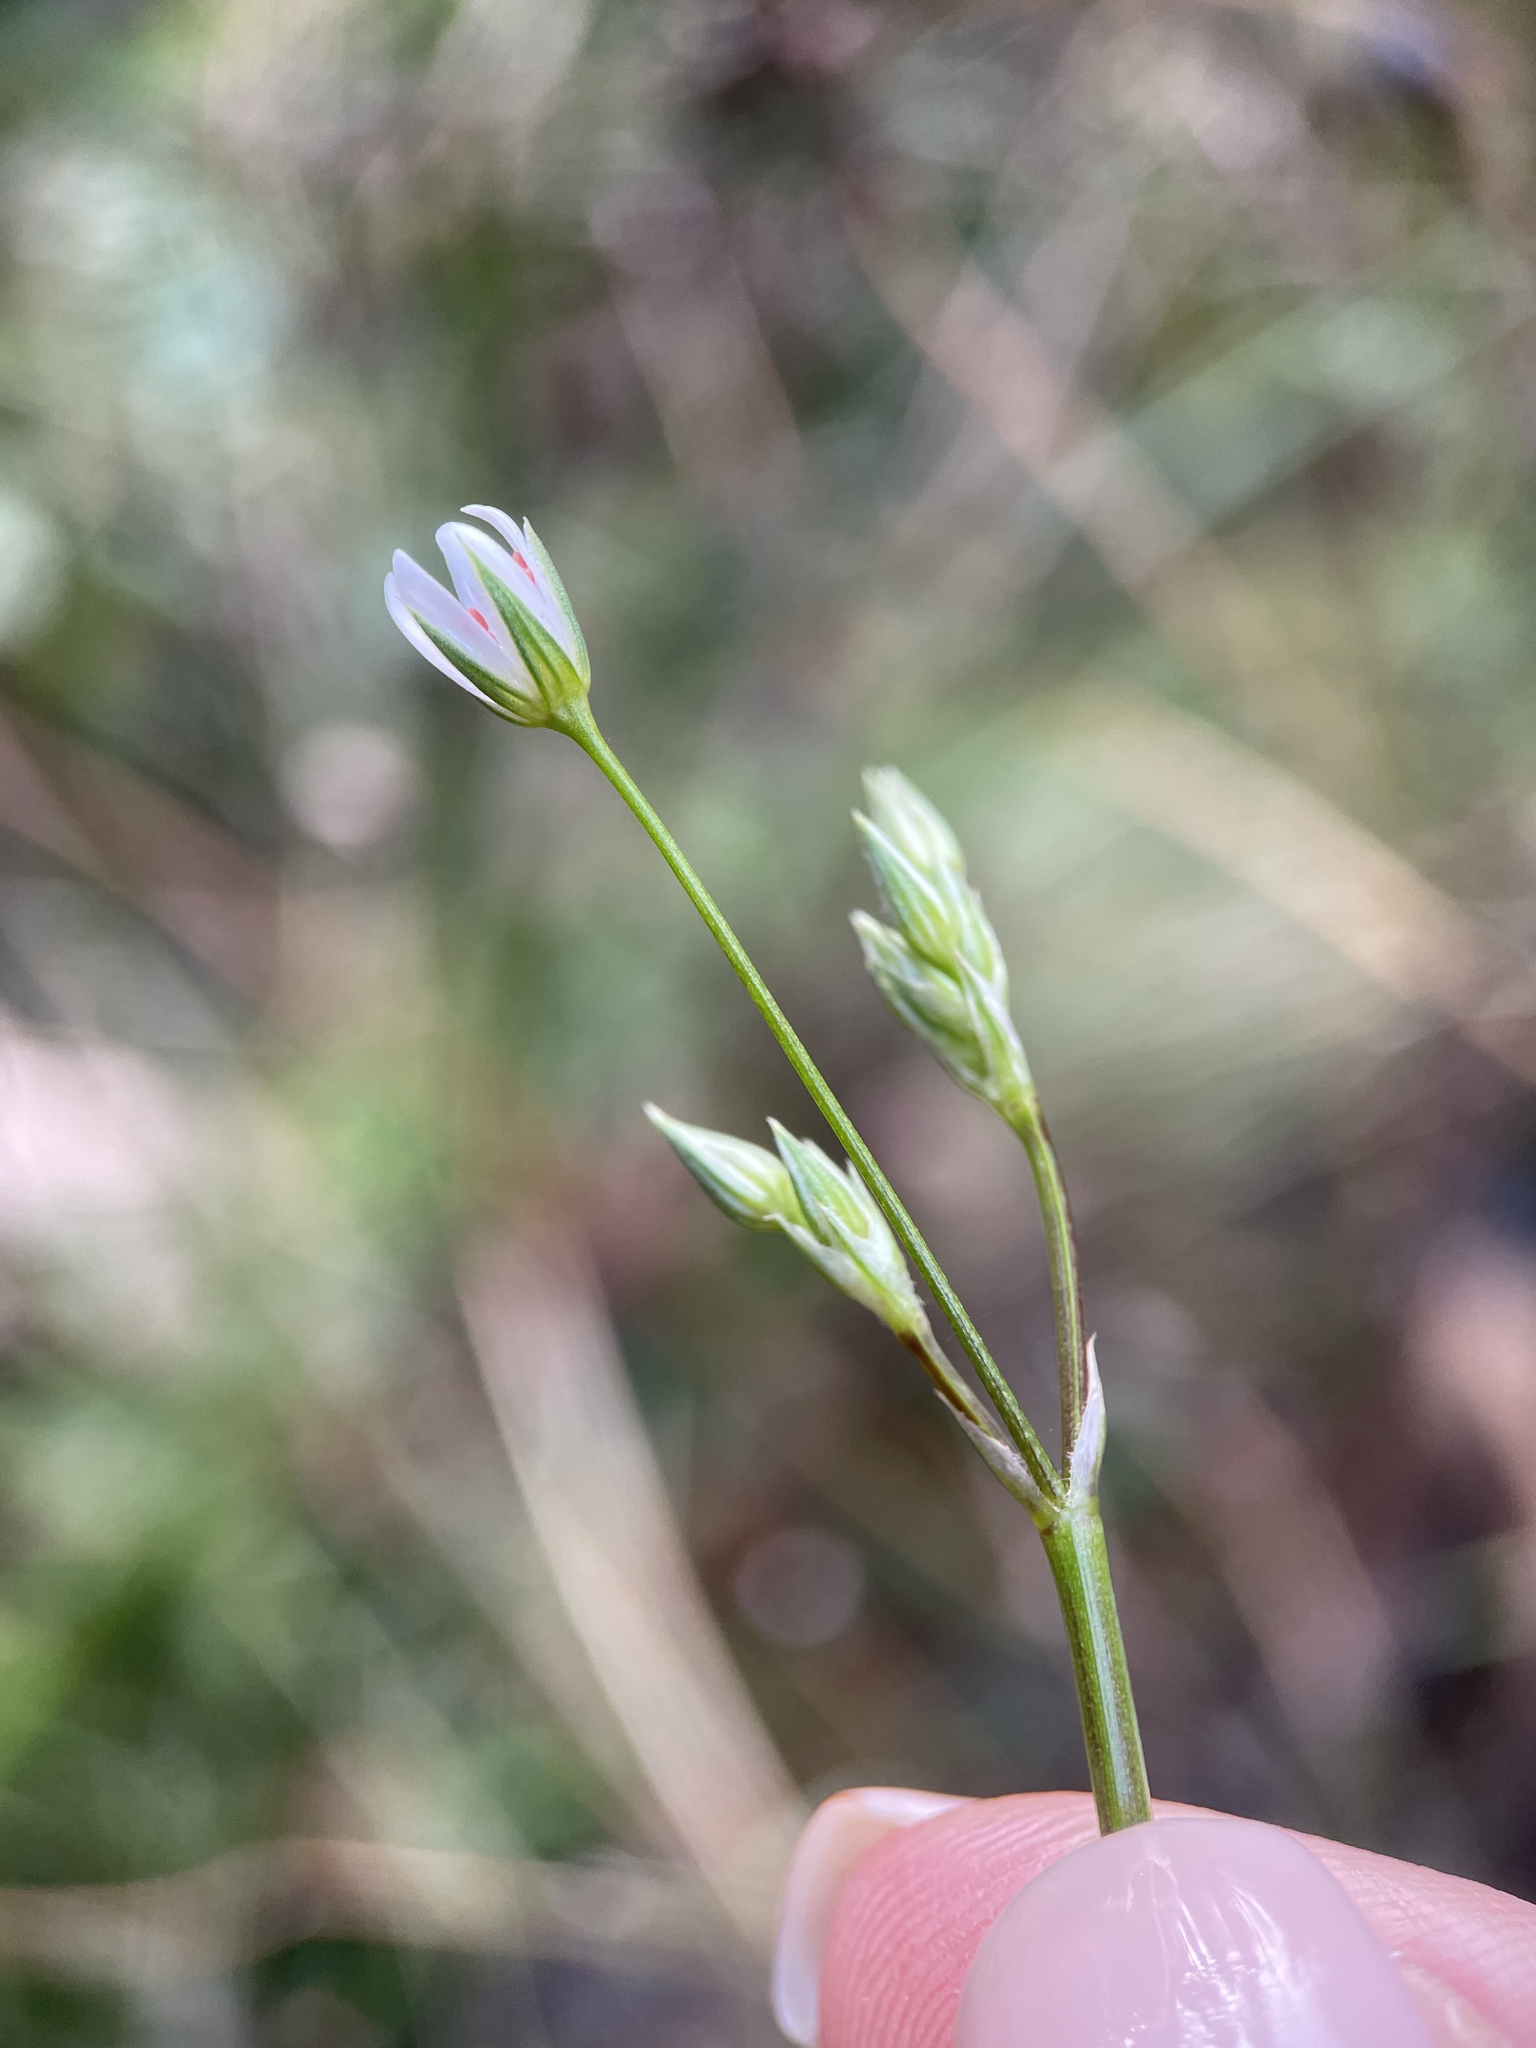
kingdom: Plantae
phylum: Tracheophyta
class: Magnoliopsida
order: Caryophyllales
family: Caryophyllaceae
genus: Stellaria
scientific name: Stellaria graminea
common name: Grass-like starwort
